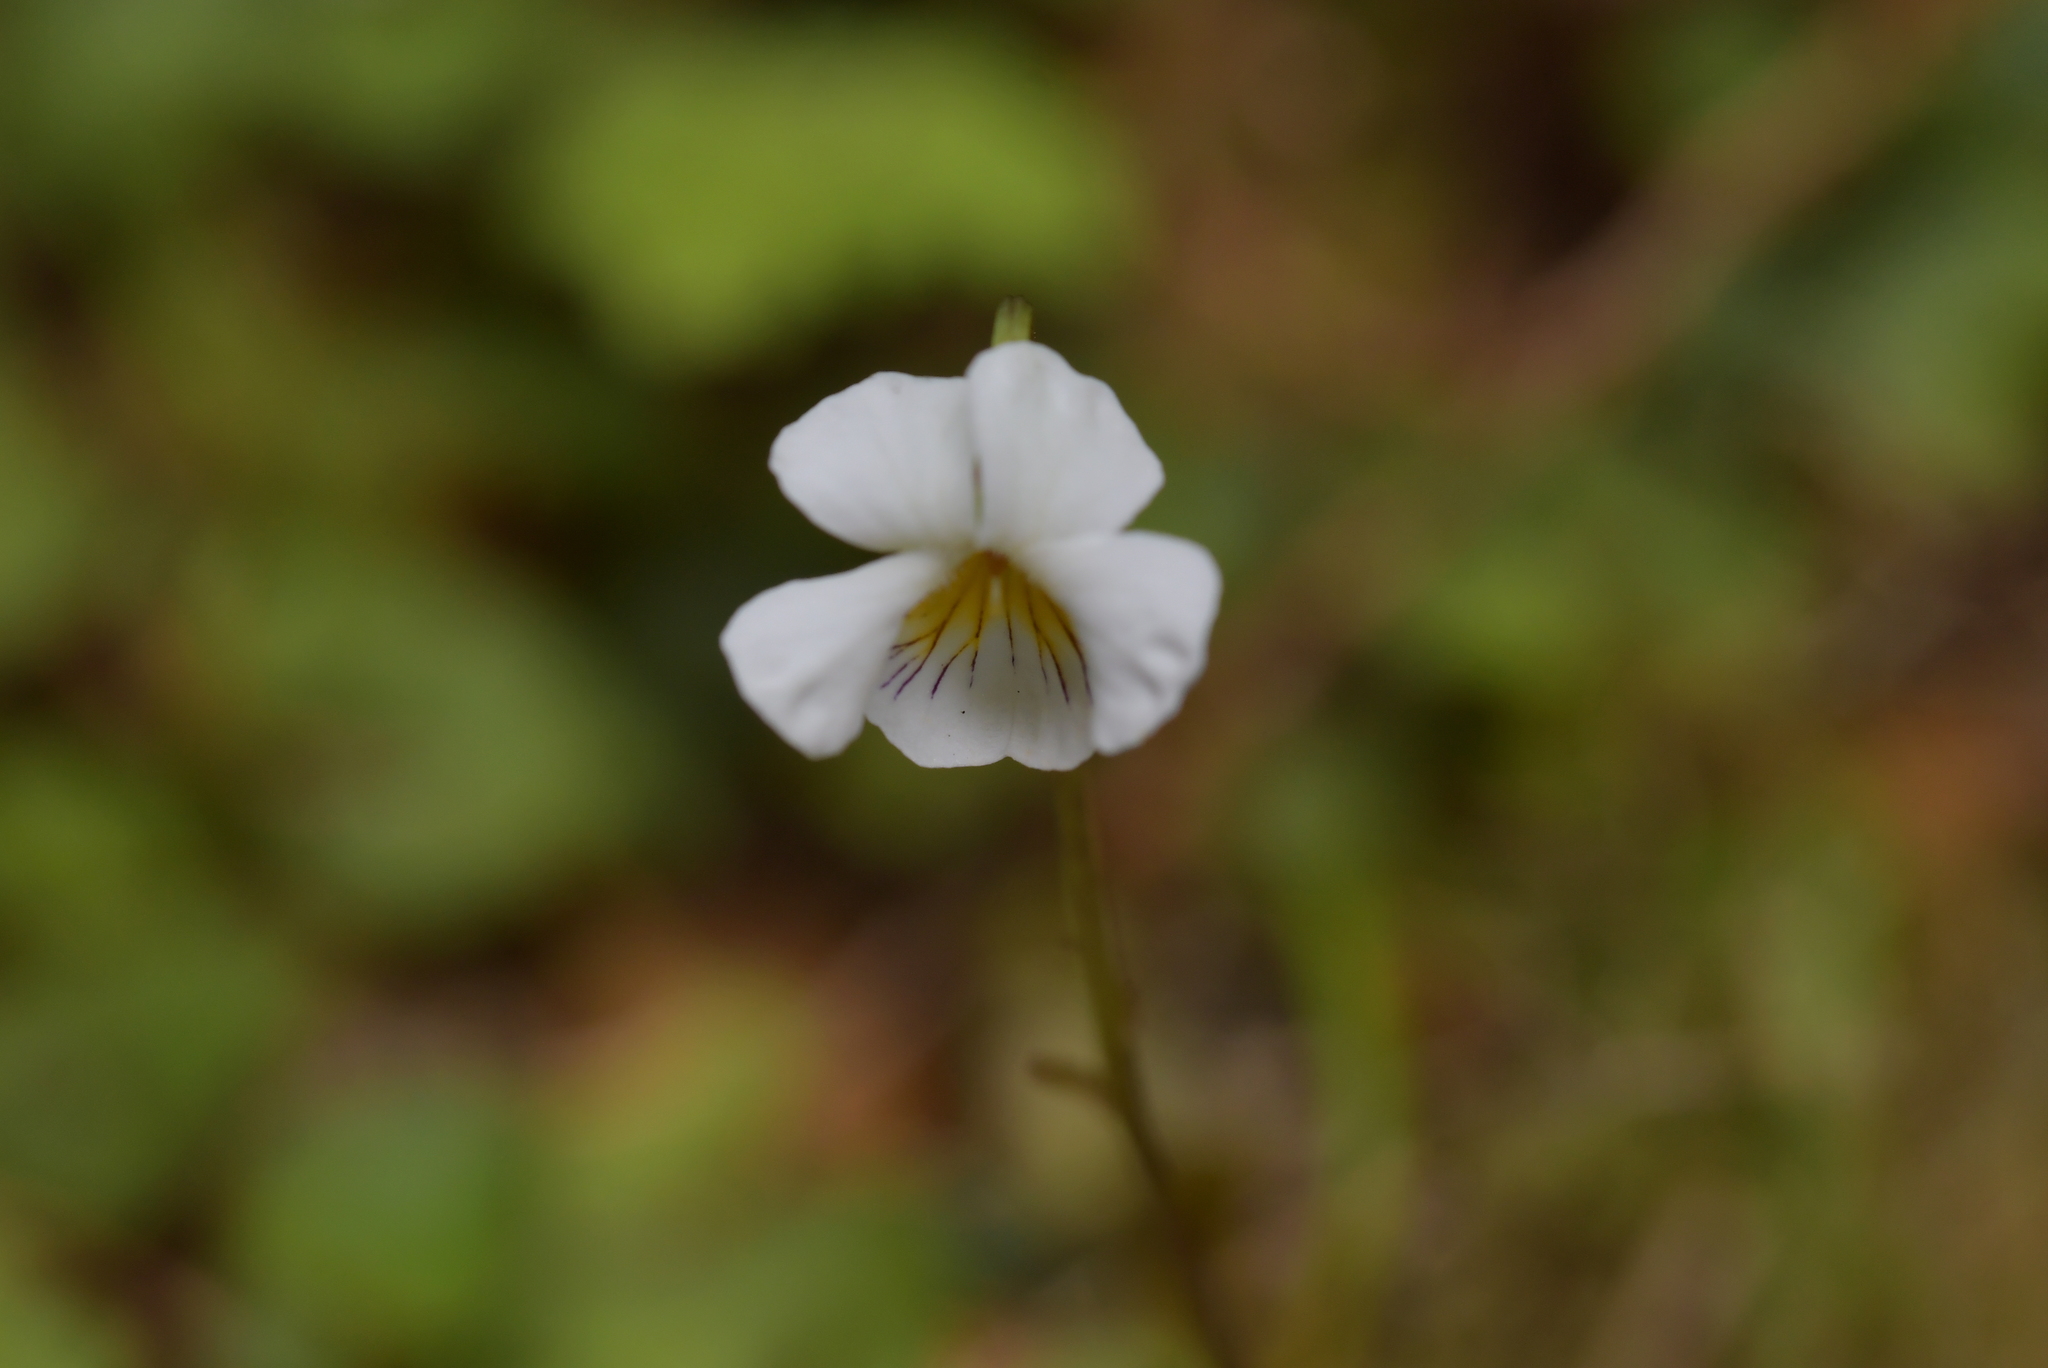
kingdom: Plantae
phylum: Tracheophyta
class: Magnoliopsida
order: Malpighiales
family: Violaceae
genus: Viola
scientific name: Viola filicaulis
